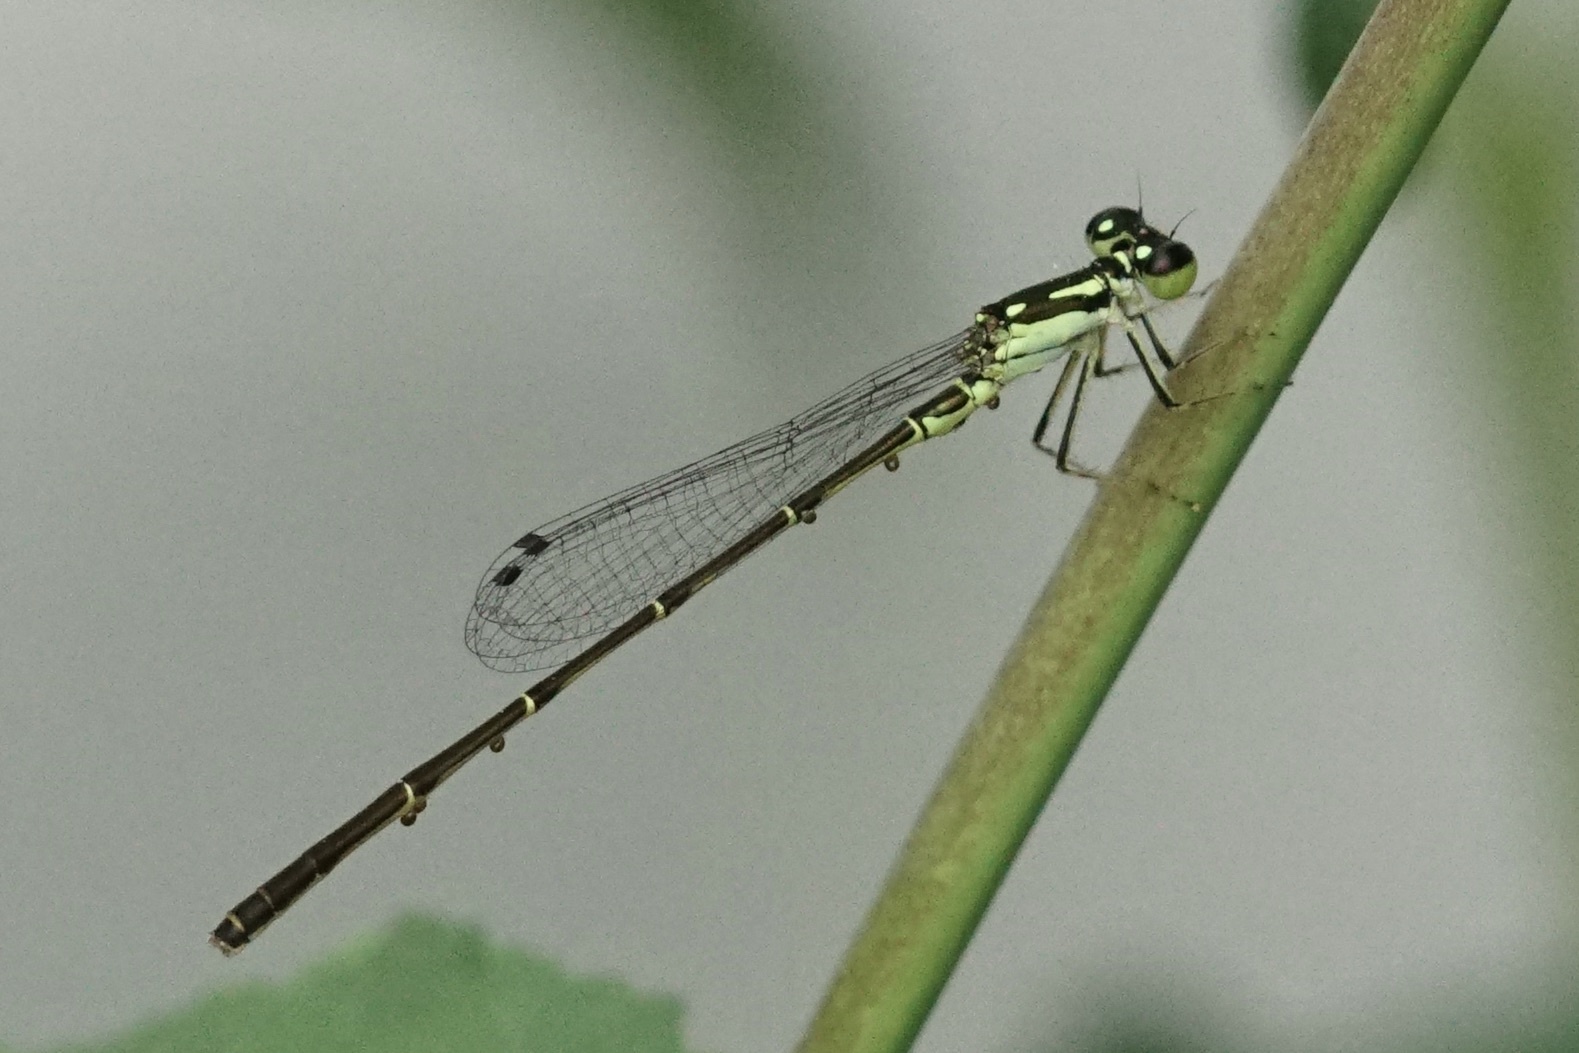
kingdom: Animalia
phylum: Arthropoda
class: Insecta
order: Odonata
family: Coenagrionidae
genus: Ischnura
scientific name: Ischnura posita
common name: Fragile forktail
